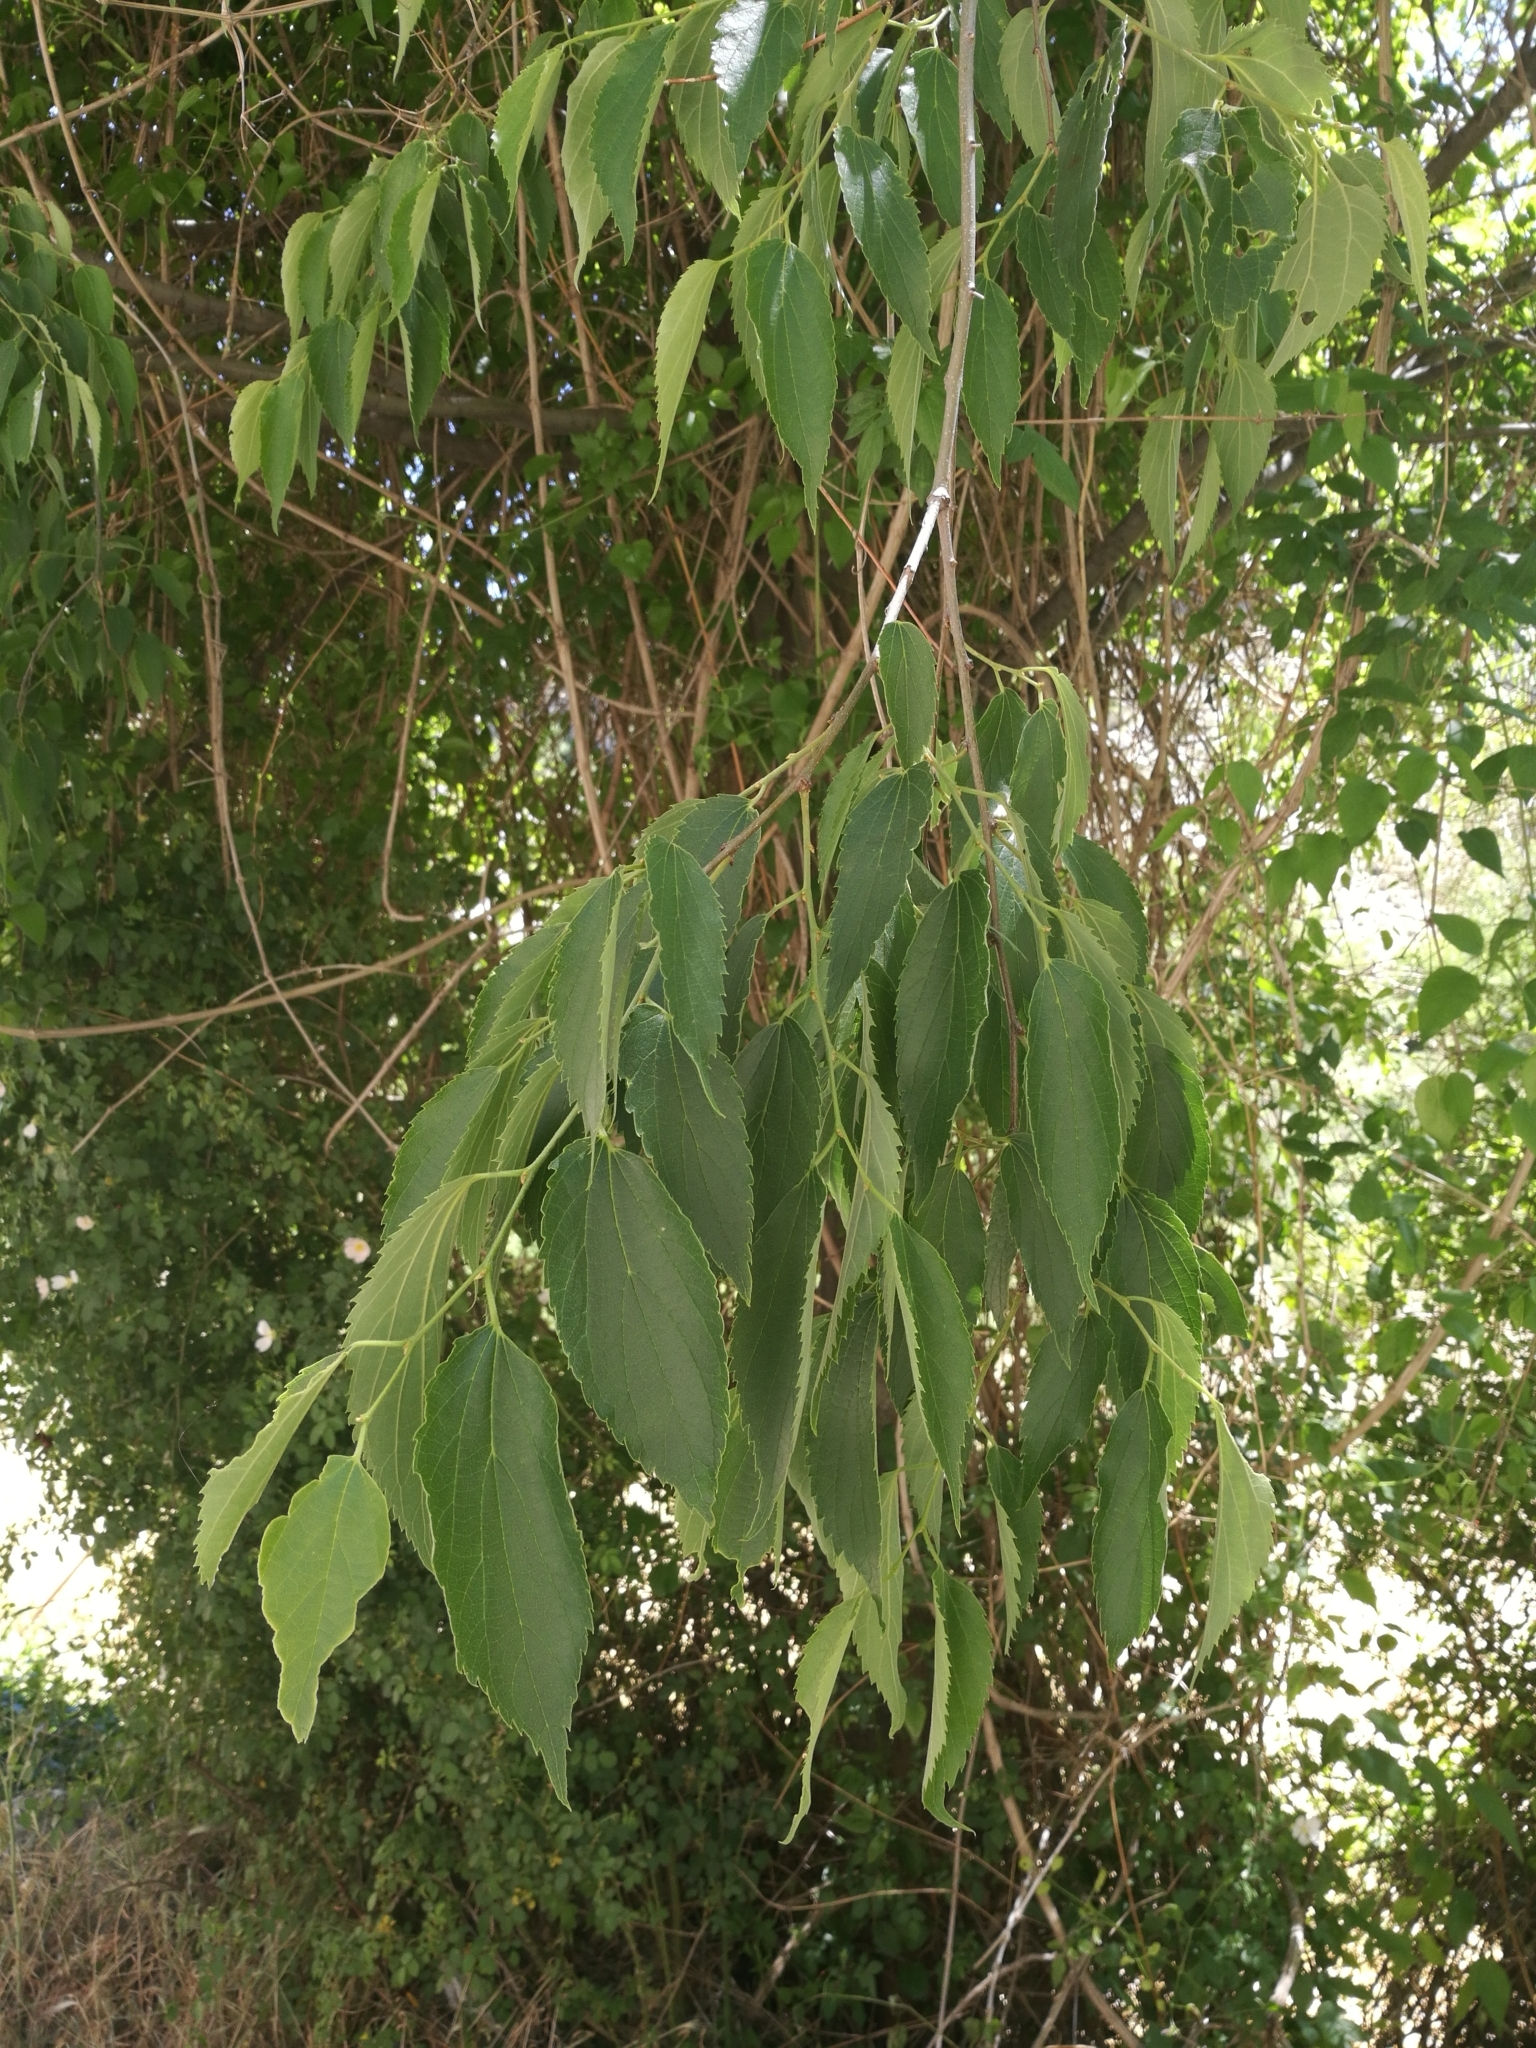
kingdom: Plantae
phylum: Tracheophyta
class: Magnoliopsida
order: Rosales
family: Cannabaceae
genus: Celtis
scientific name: Celtis australis
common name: European hackberry
